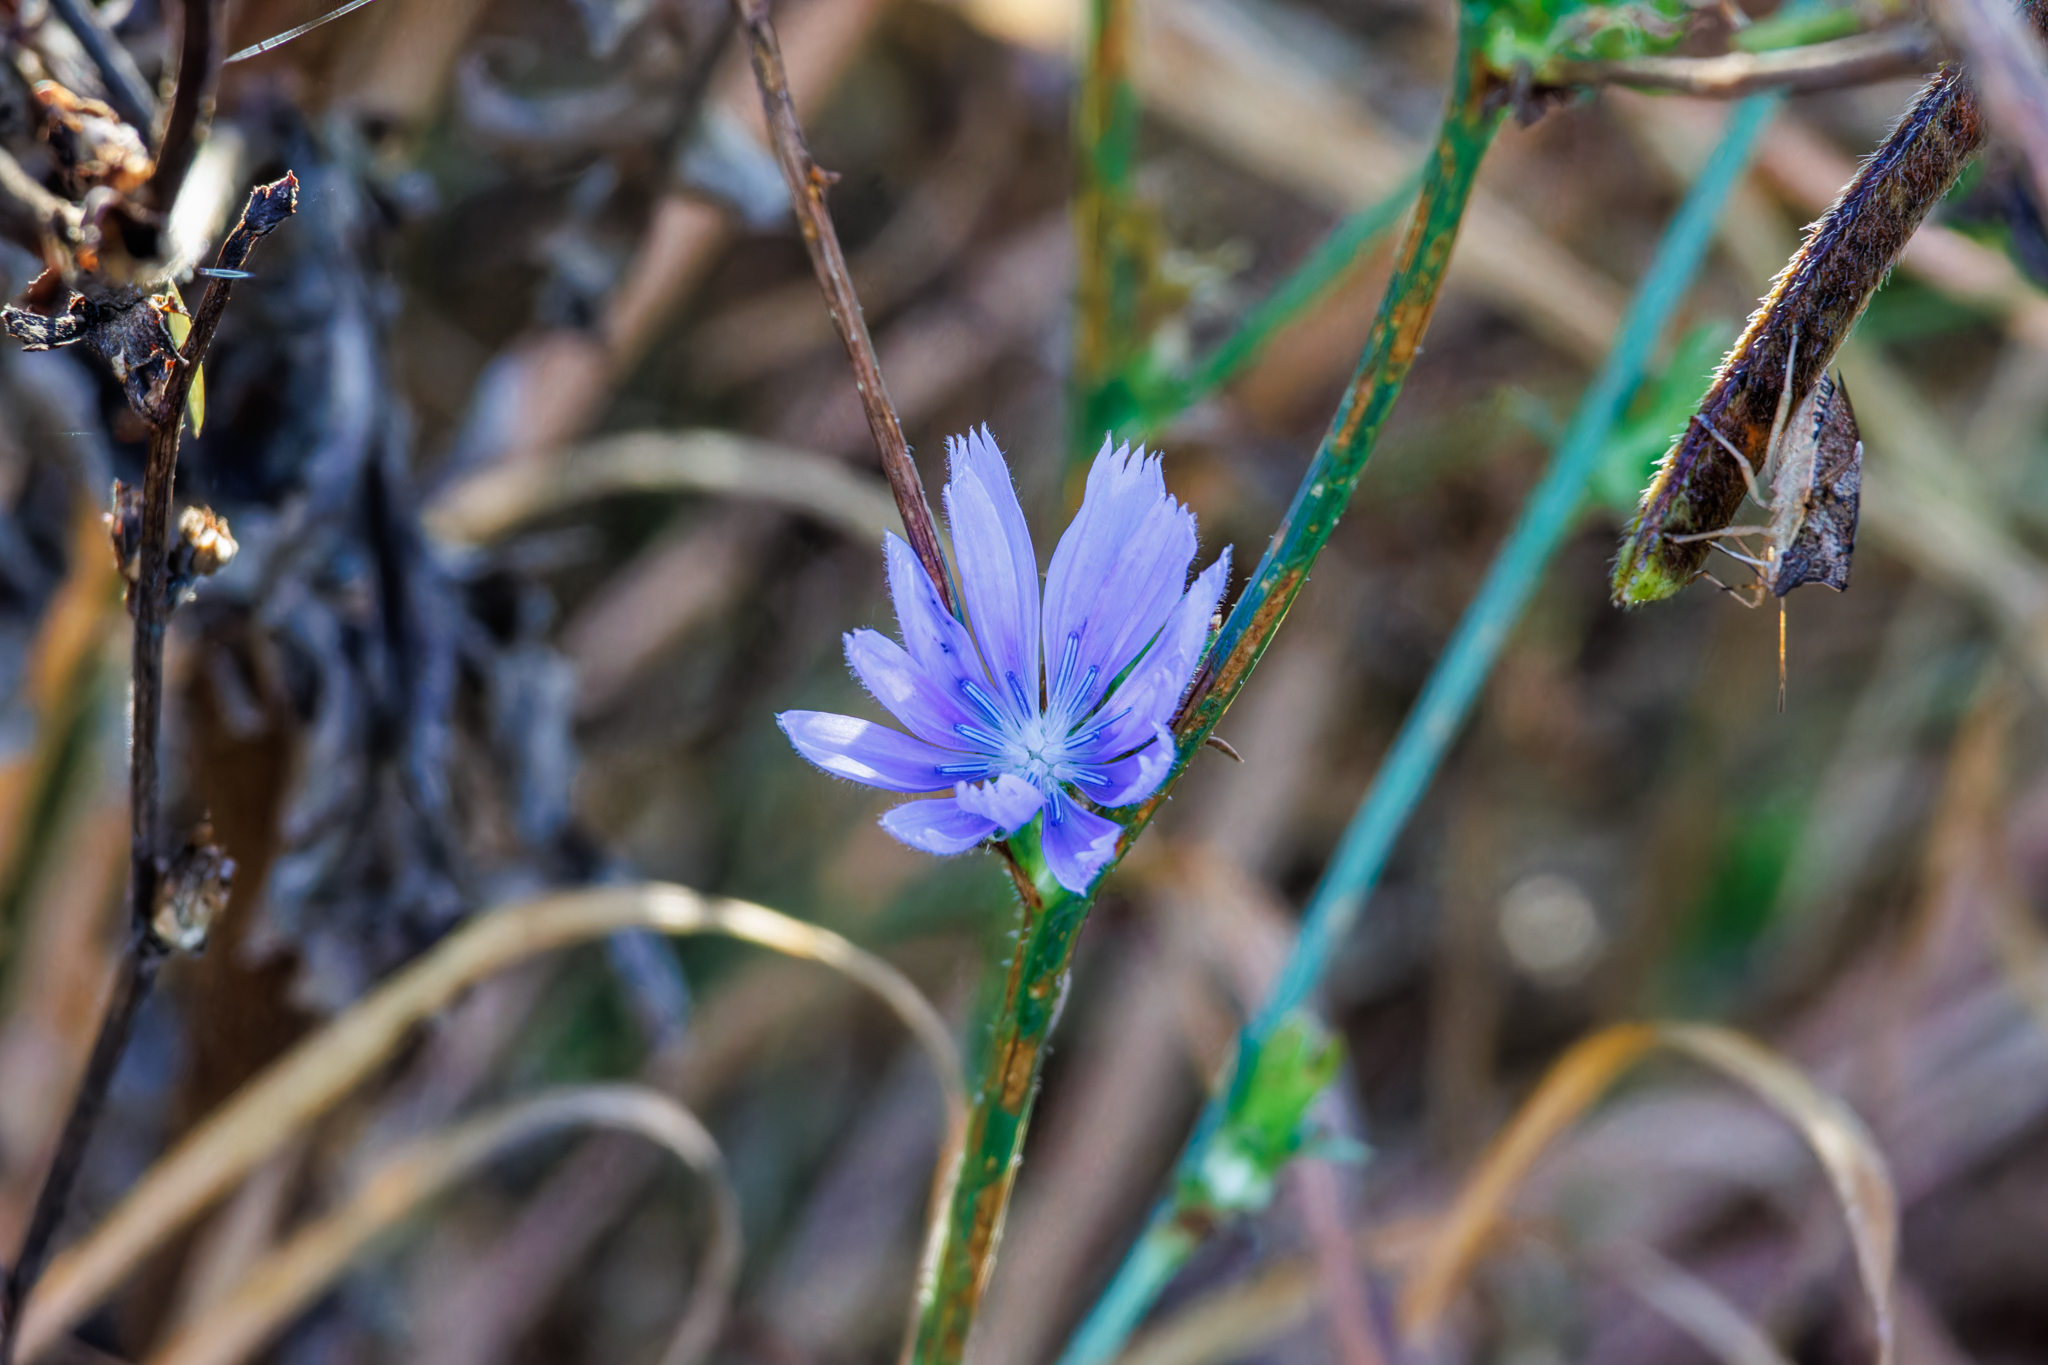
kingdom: Plantae
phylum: Tracheophyta
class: Magnoliopsida
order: Asterales
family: Asteraceae
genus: Cichorium
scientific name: Cichorium intybus
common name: Chicory
